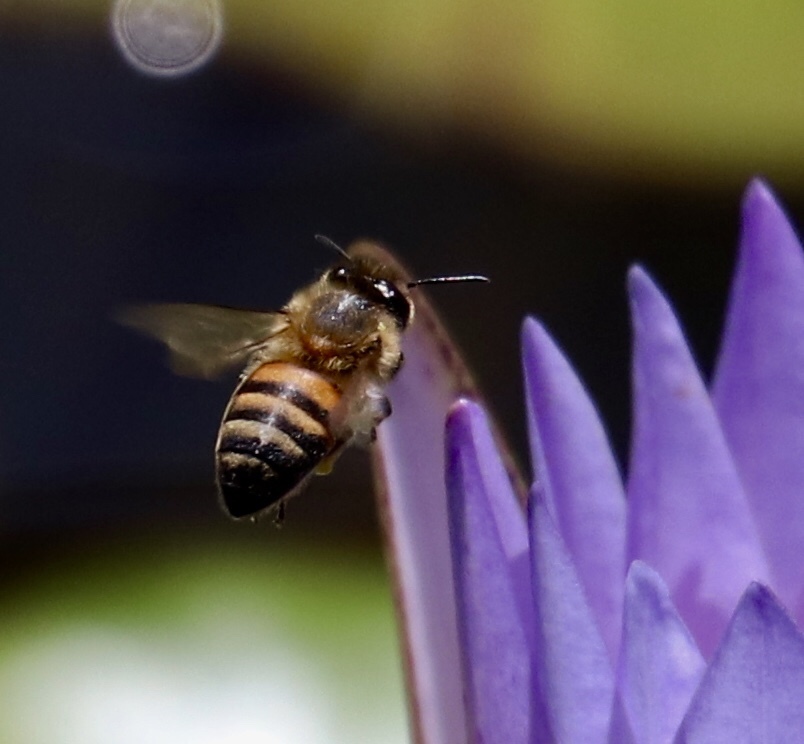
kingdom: Animalia
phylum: Arthropoda
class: Insecta
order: Hymenoptera
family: Apidae
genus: Apis
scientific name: Apis mellifera
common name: Honey bee
